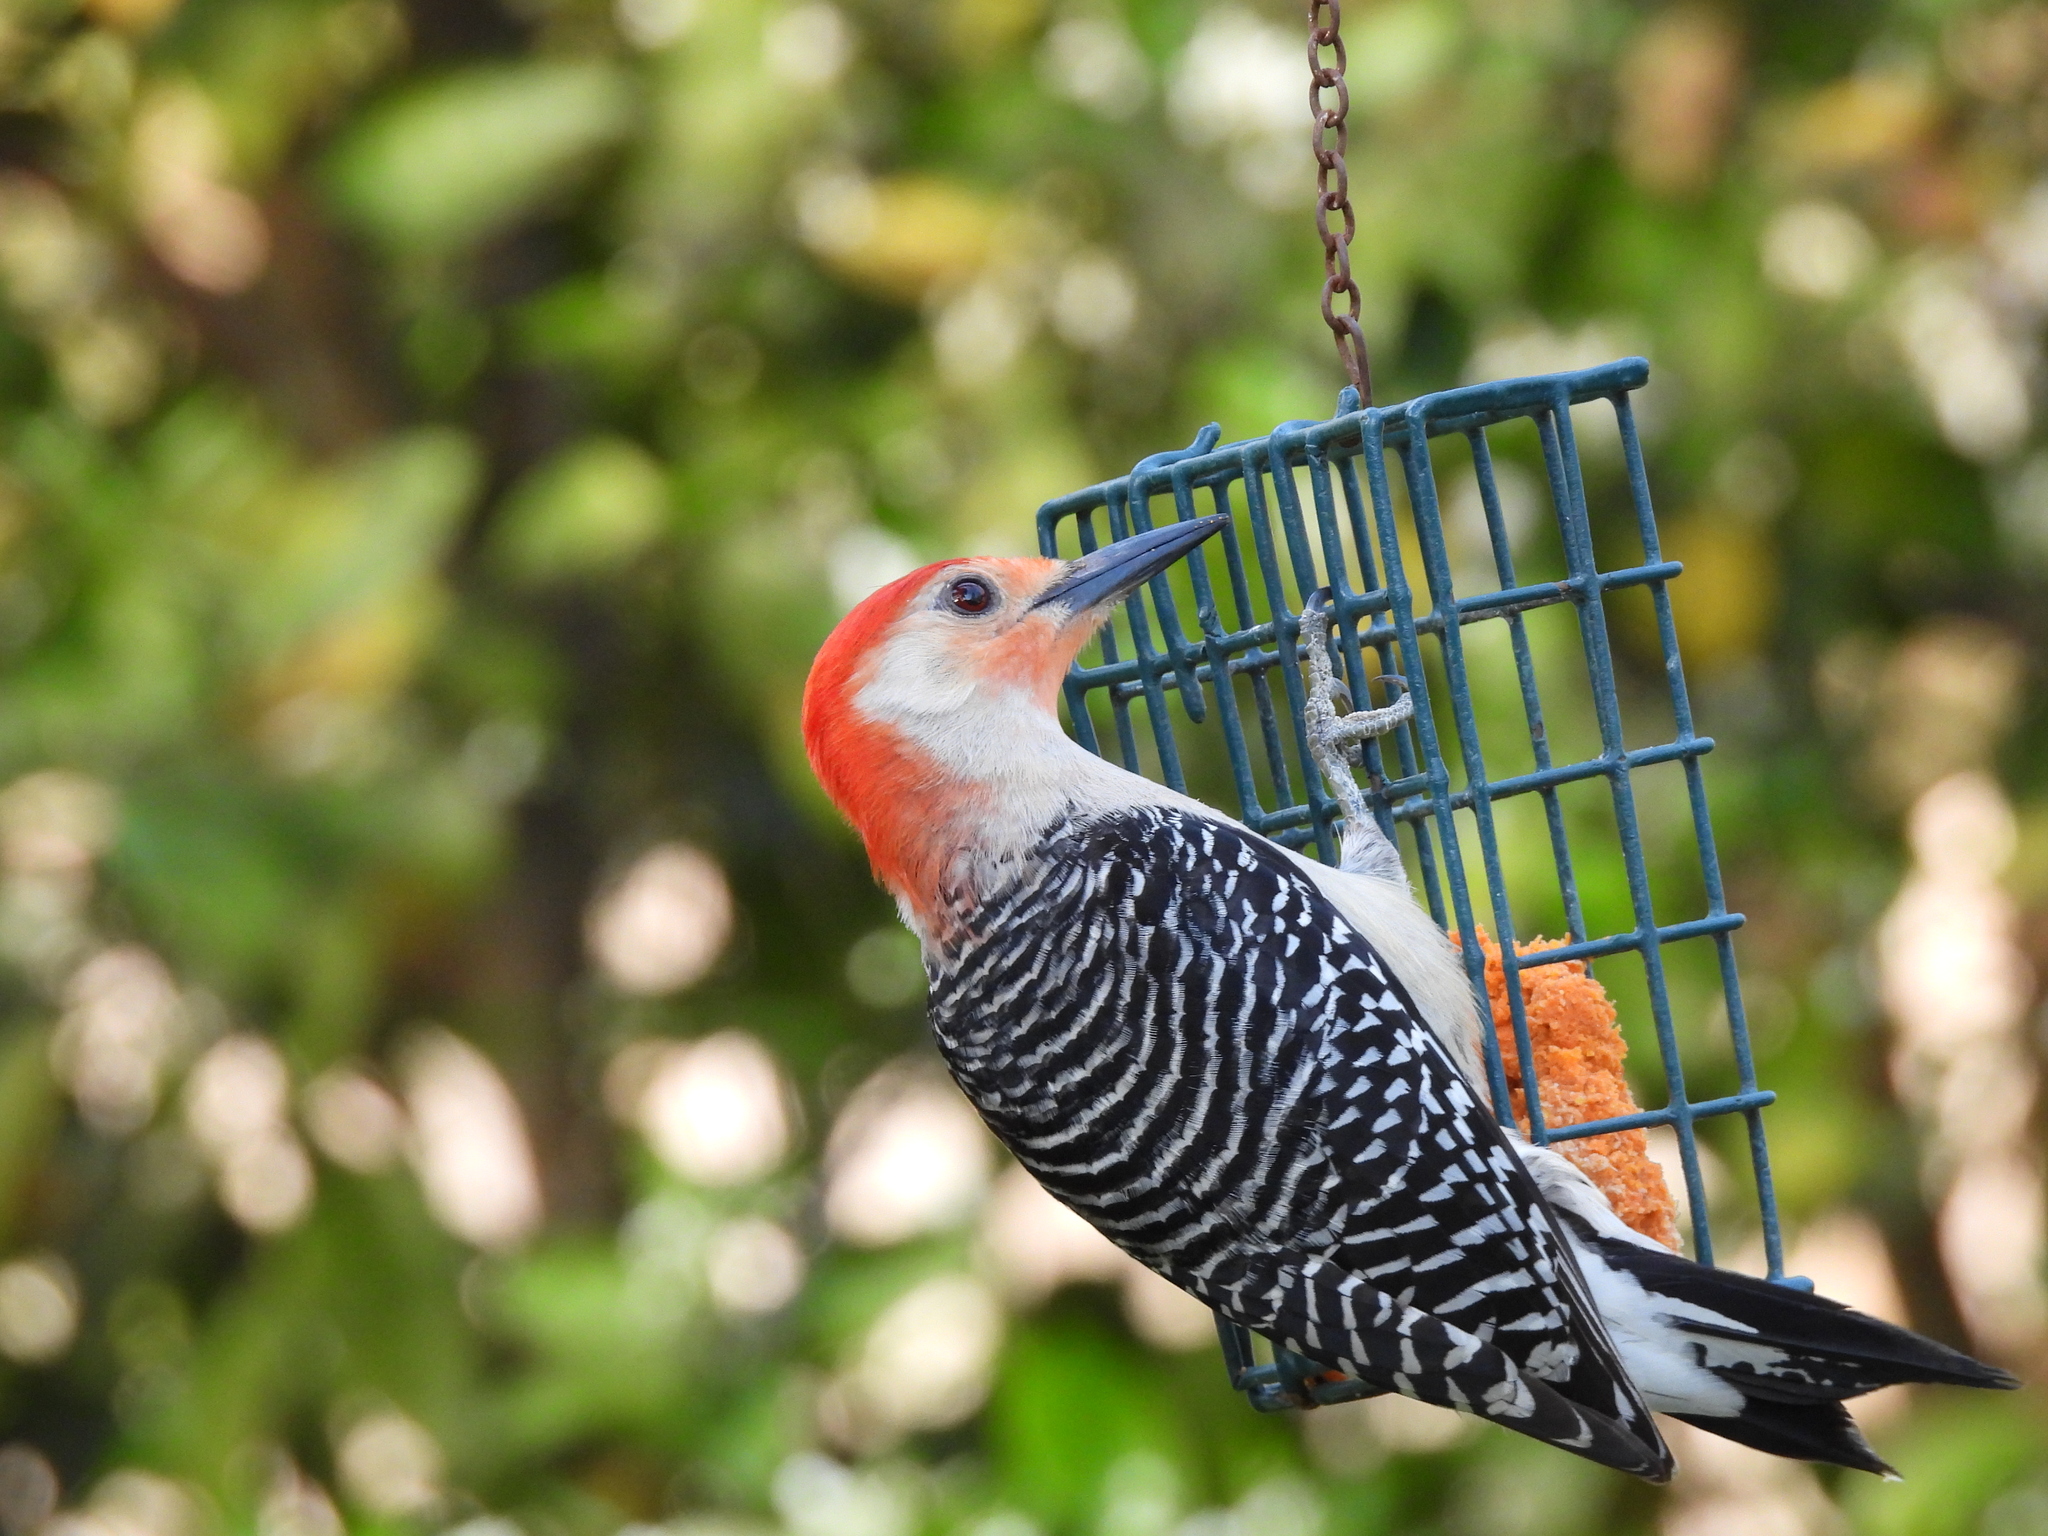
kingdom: Animalia
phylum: Chordata
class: Aves
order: Piciformes
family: Picidae
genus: Melanerpes
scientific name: Melanerpes carolinus
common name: Red-bellied woodpecker
